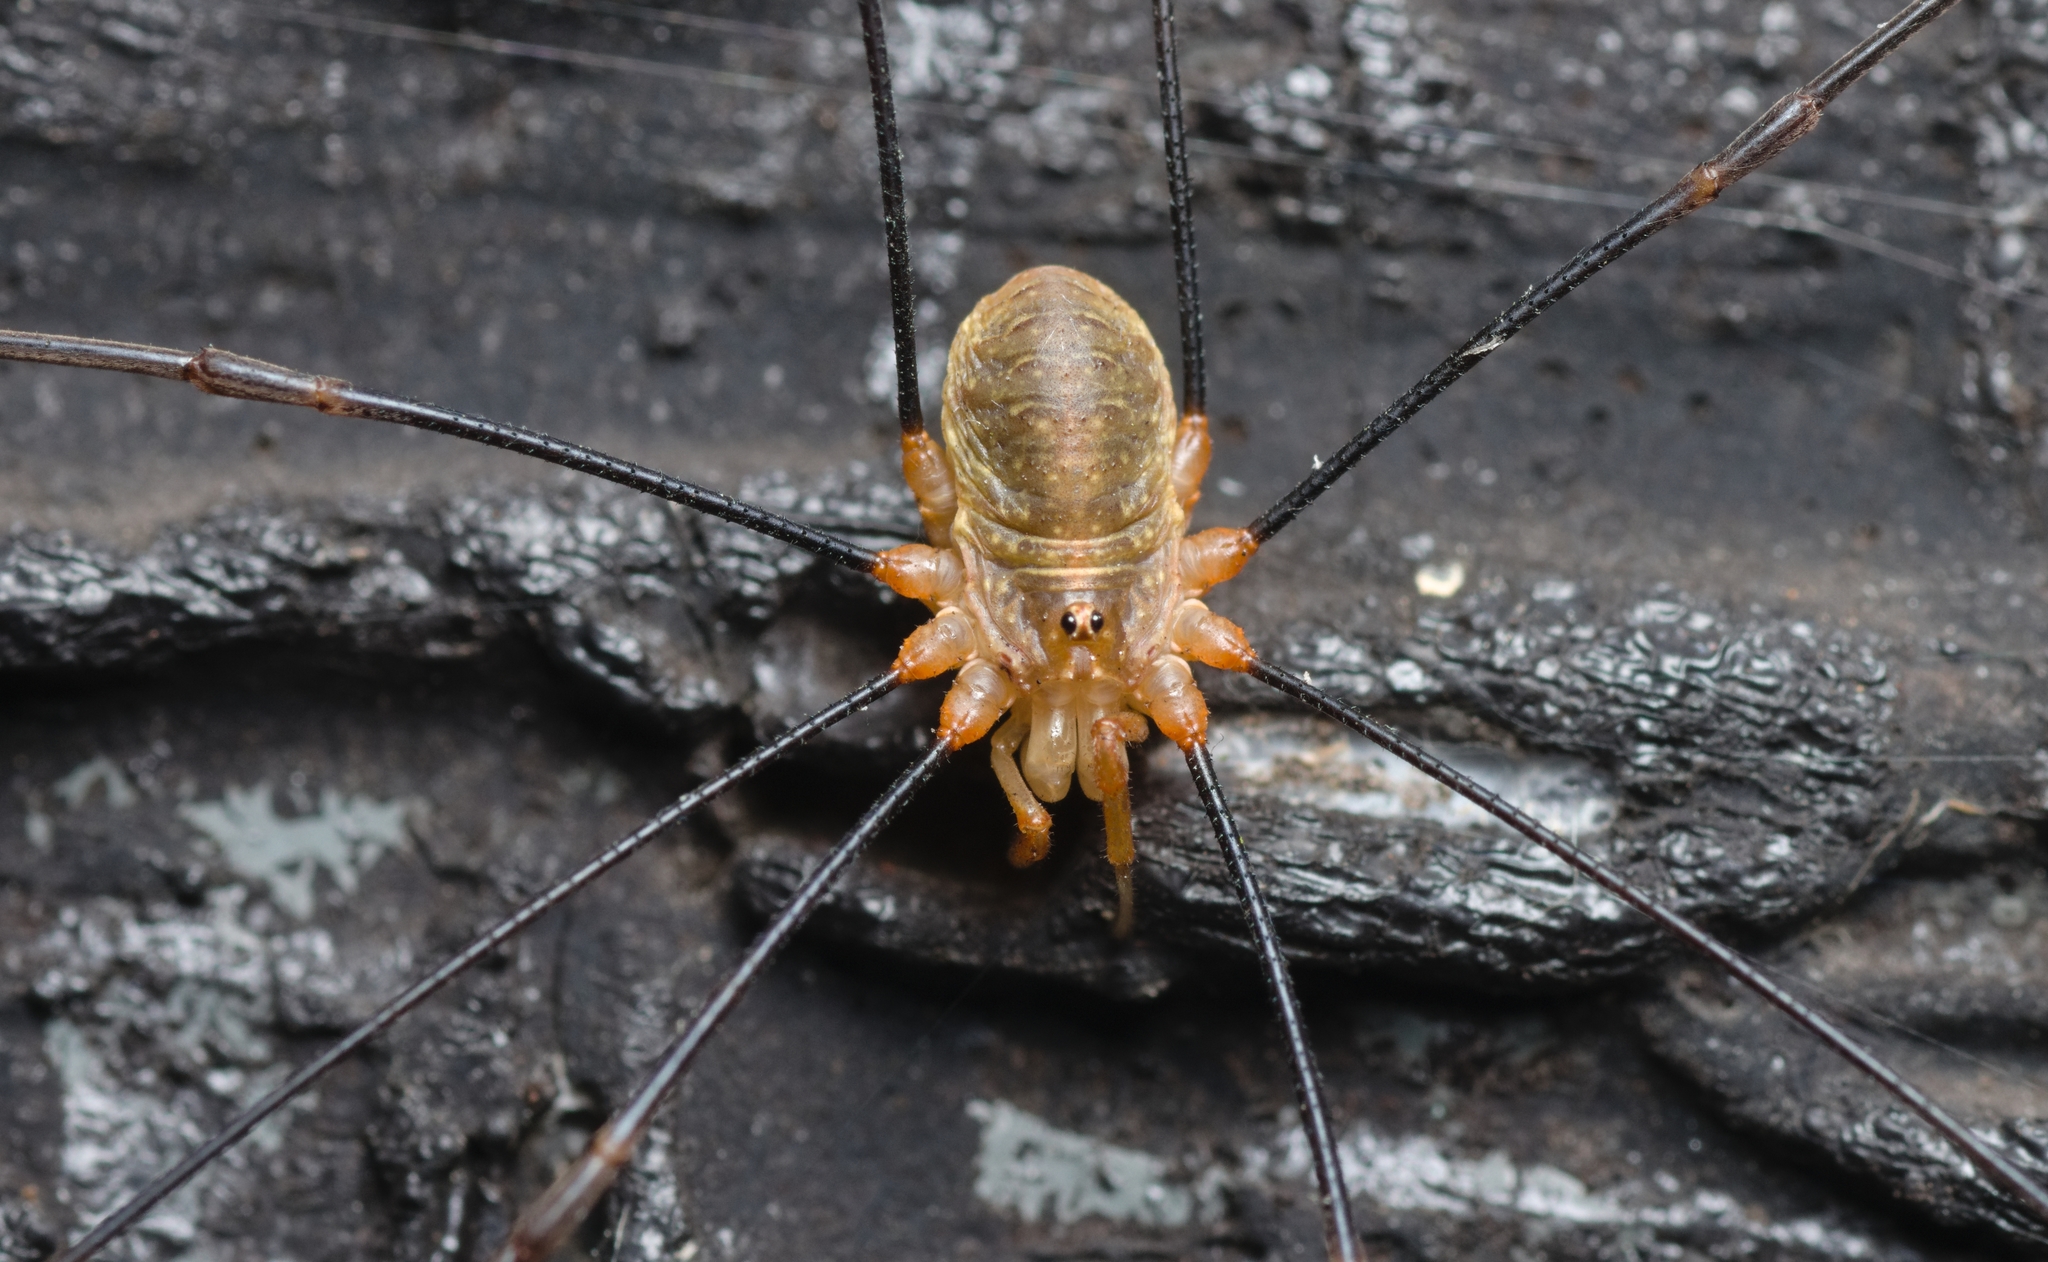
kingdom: Animalia
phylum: Arthropoda
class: Arachnida
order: Opiliones
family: Phalangiidae
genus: Opilio
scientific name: Opilio canestrinii
